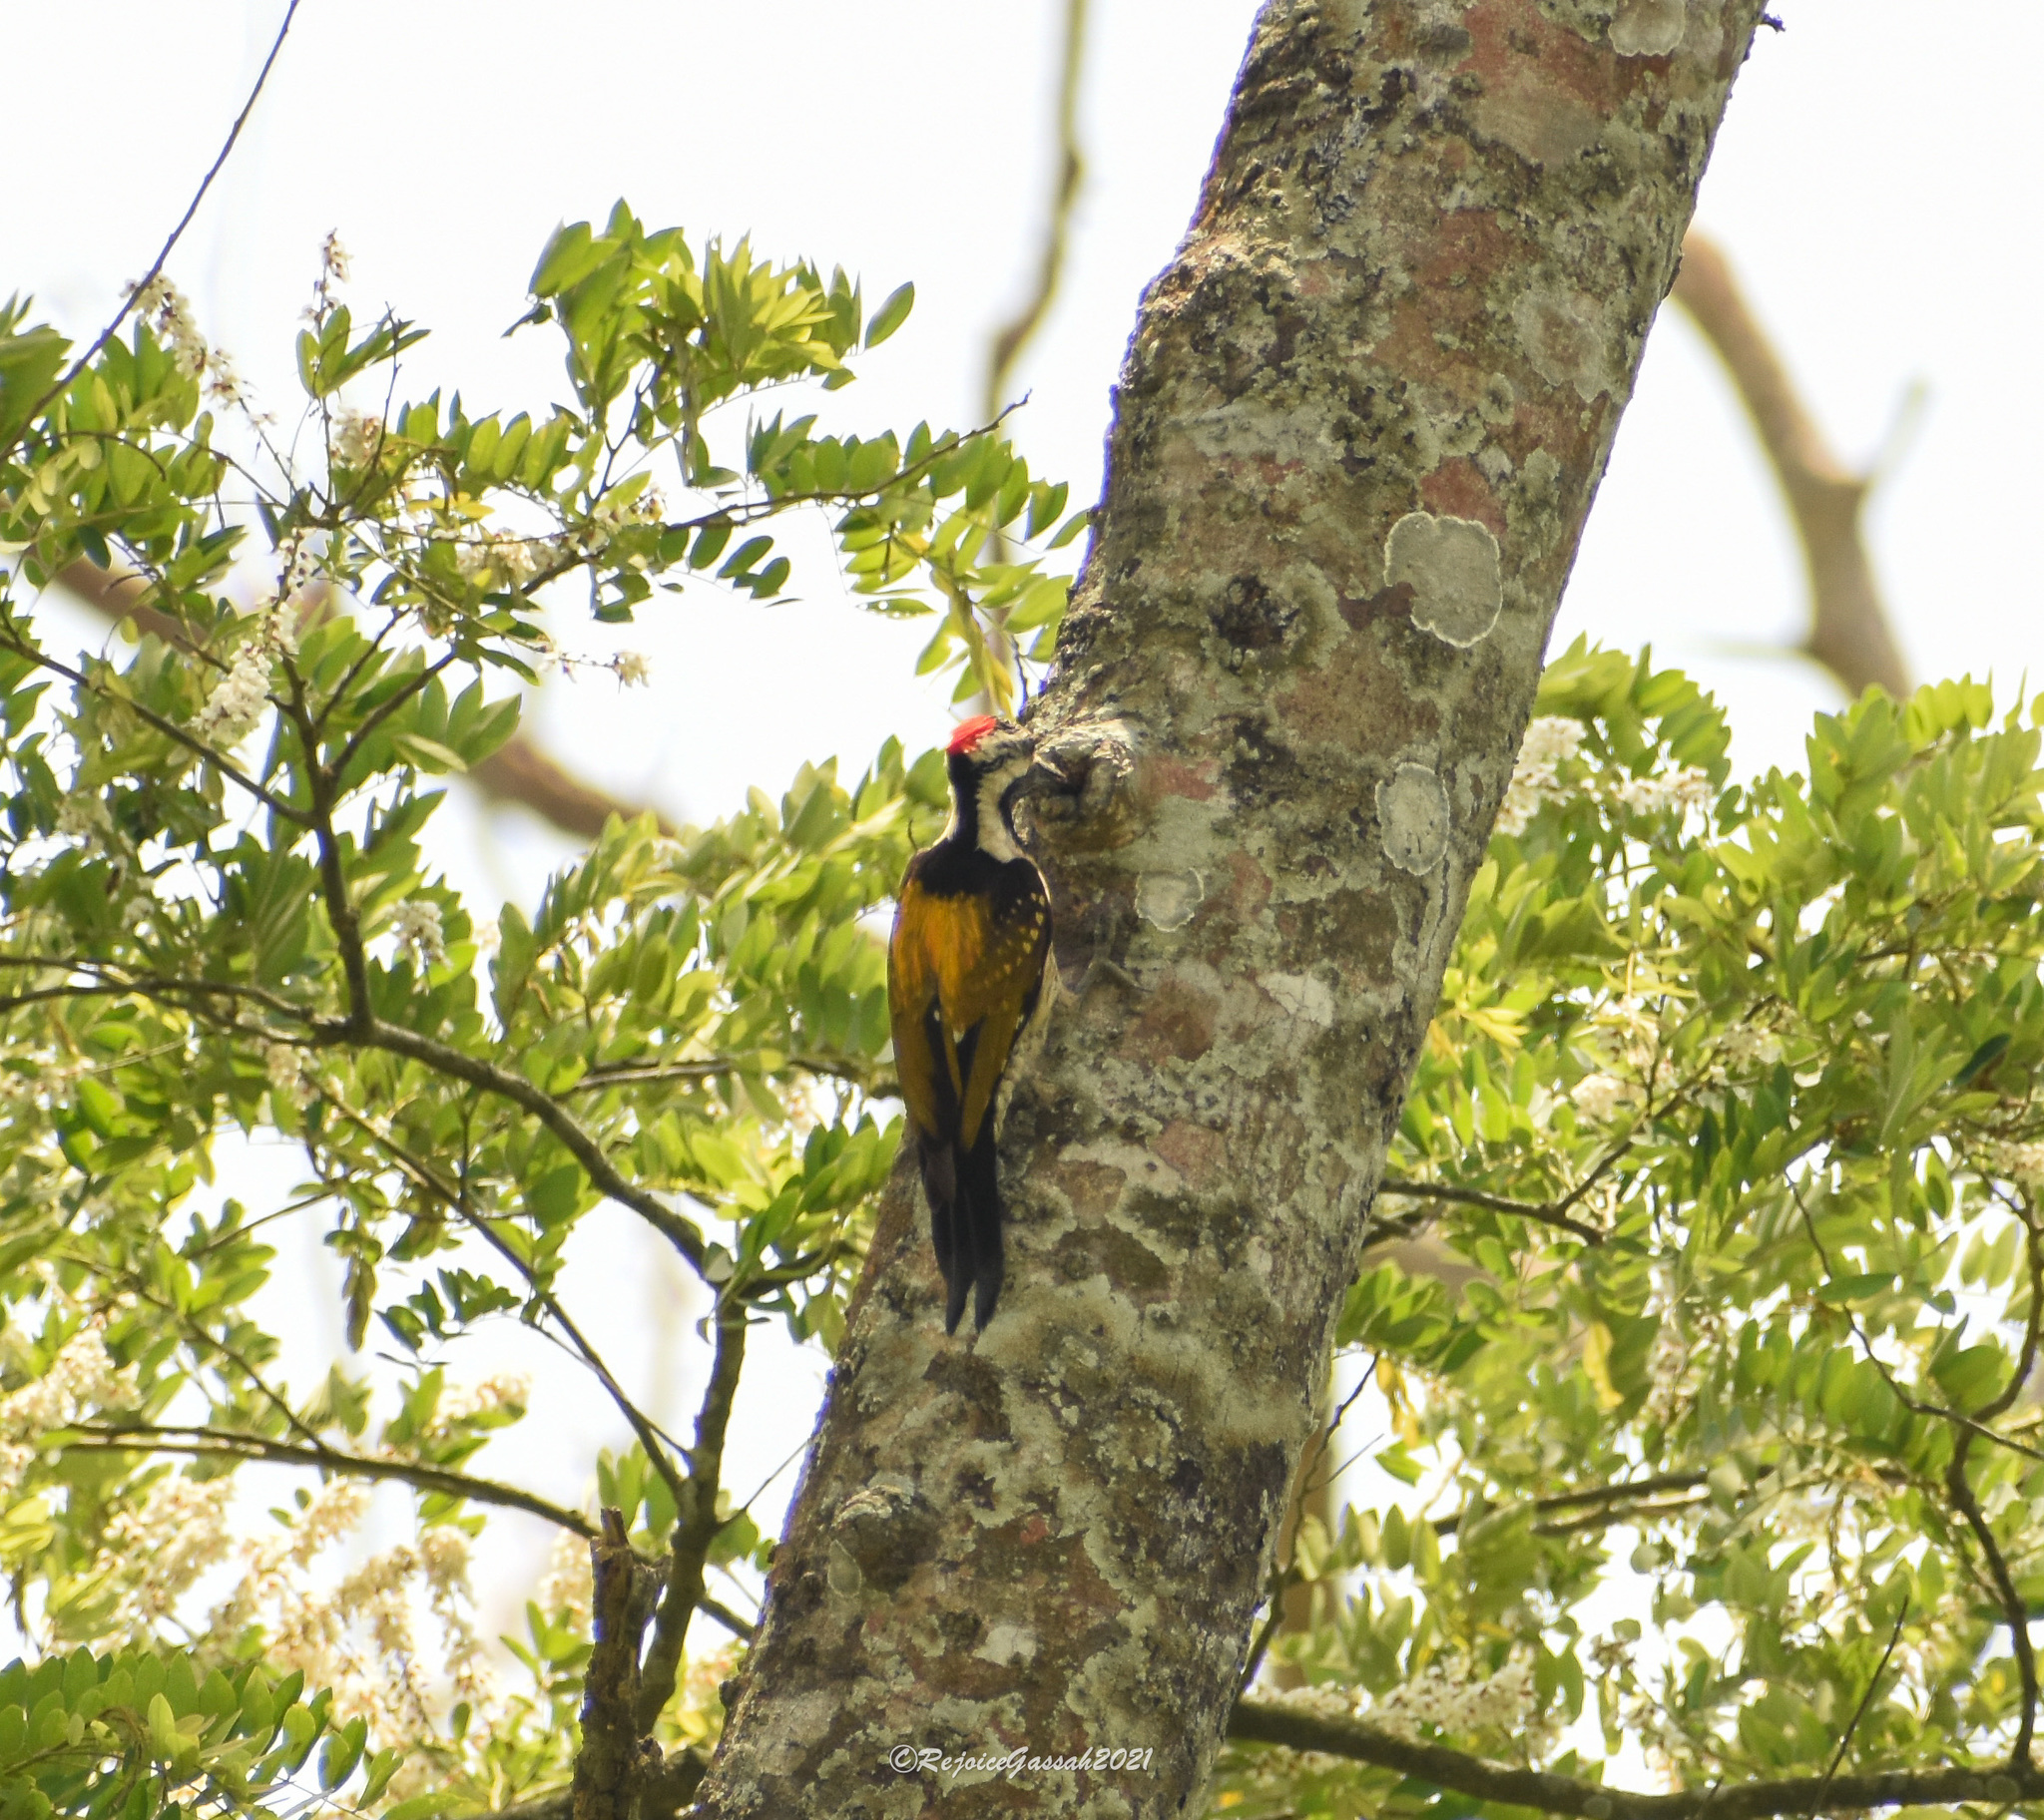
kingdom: Animalia
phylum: Chordata
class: Aves
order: Piciformes
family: Picidae
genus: Dinopium
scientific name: Dinopium benghalense
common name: Black-rumped flameback
